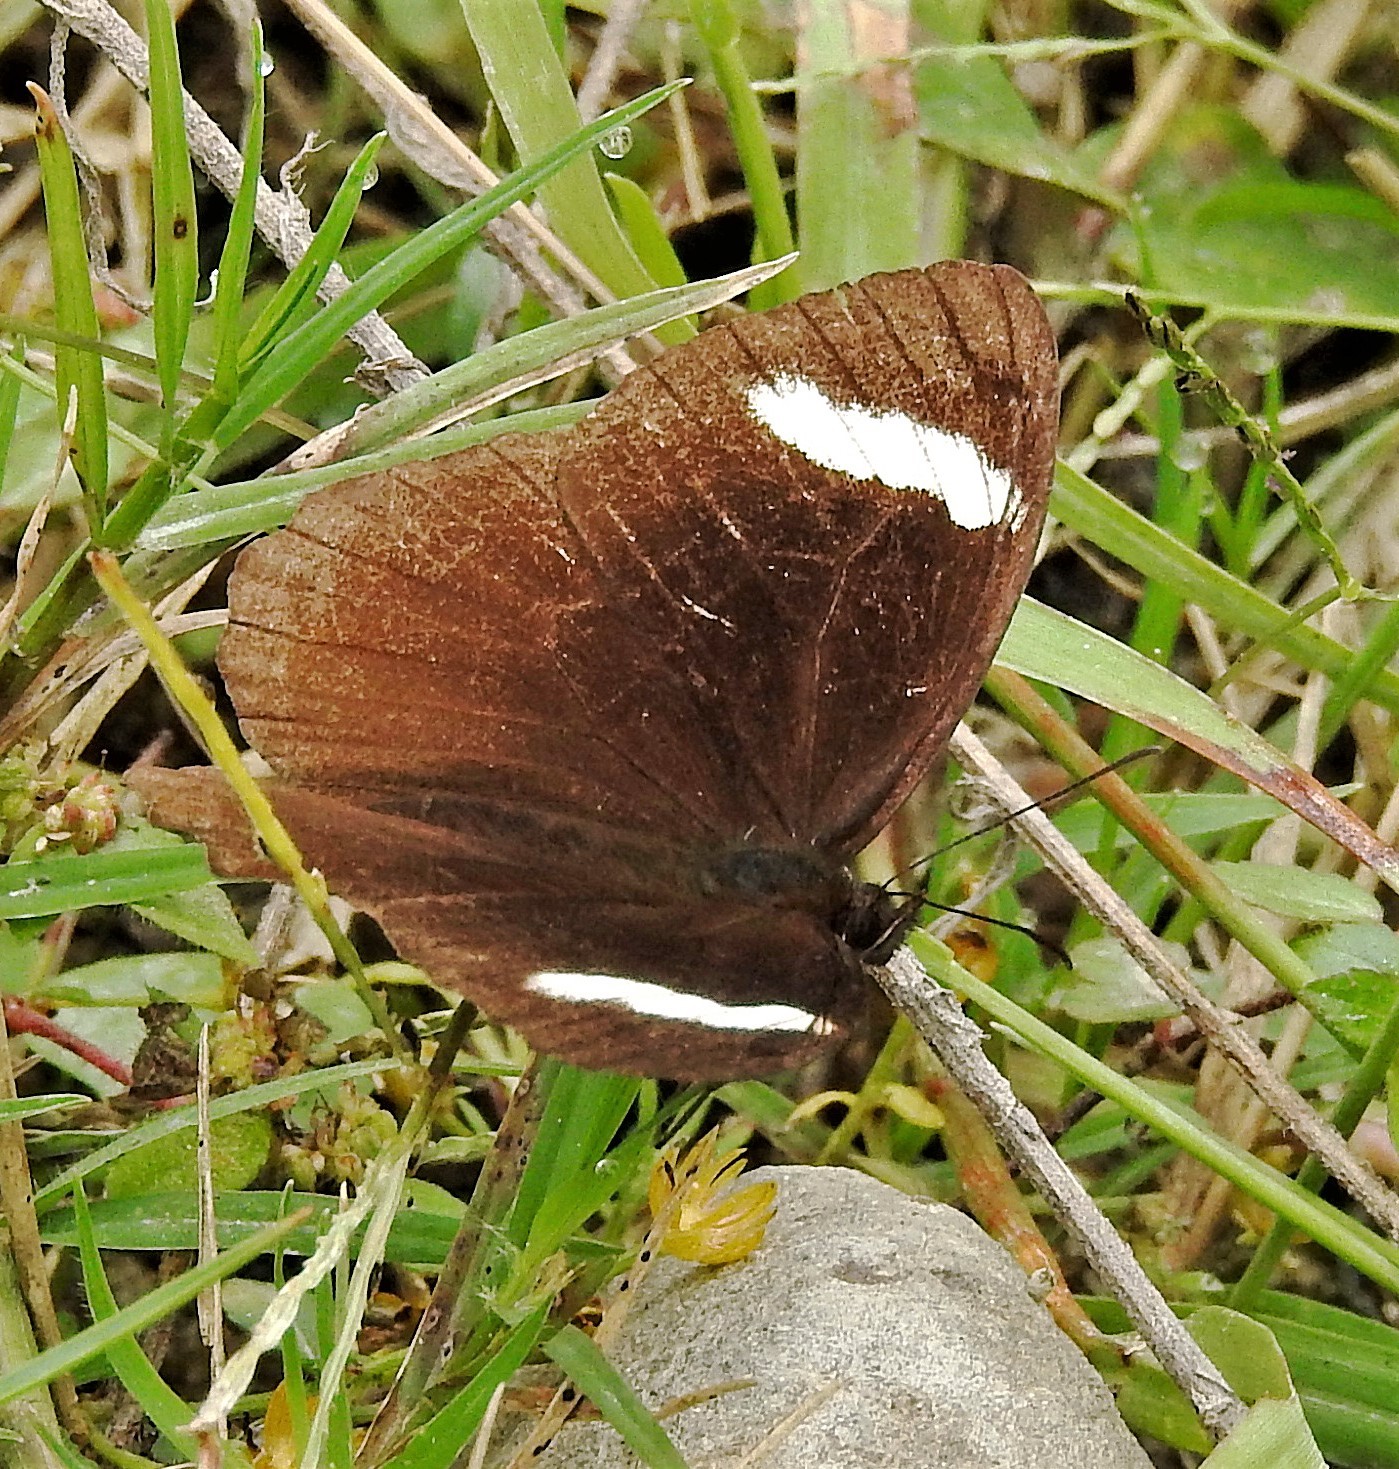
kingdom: Animalia
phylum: Arthropoda
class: Insecta
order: Lepidoptera
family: Nymphalidae
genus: Pedaliodes
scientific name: Pedaliodes porina
